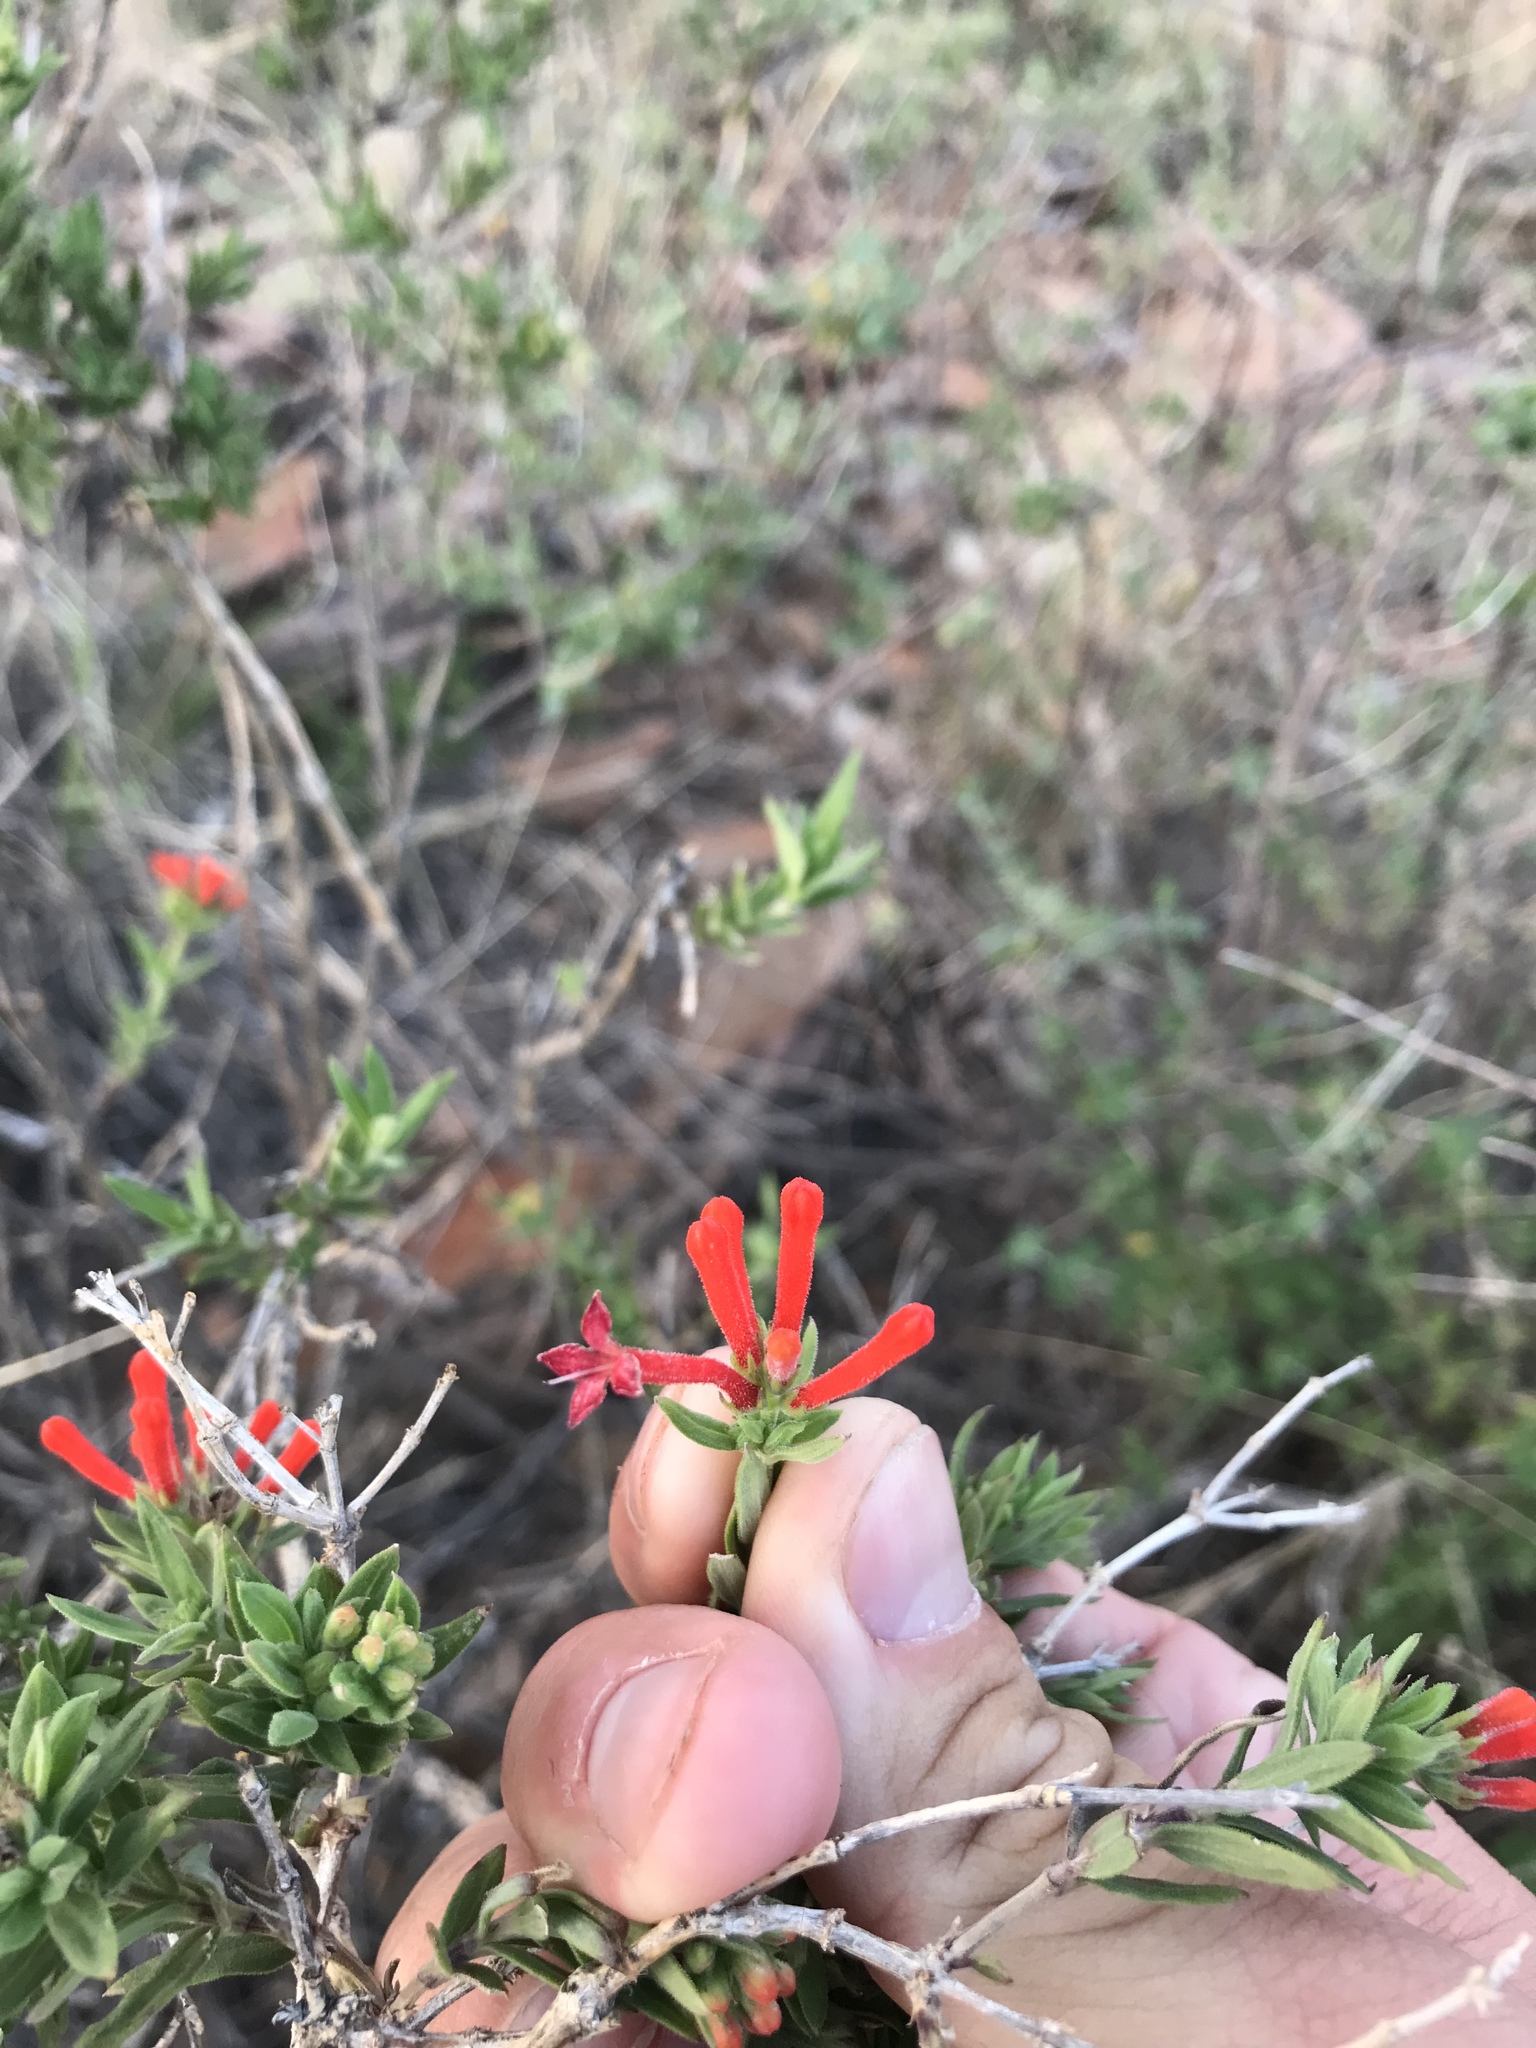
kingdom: Plantae
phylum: Tracheophyta
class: Magnoliopsida
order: Gentianales
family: Rubiaceae
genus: Bouvardia
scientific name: Bouvardia ternifolia
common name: Scarlet bouvardia
